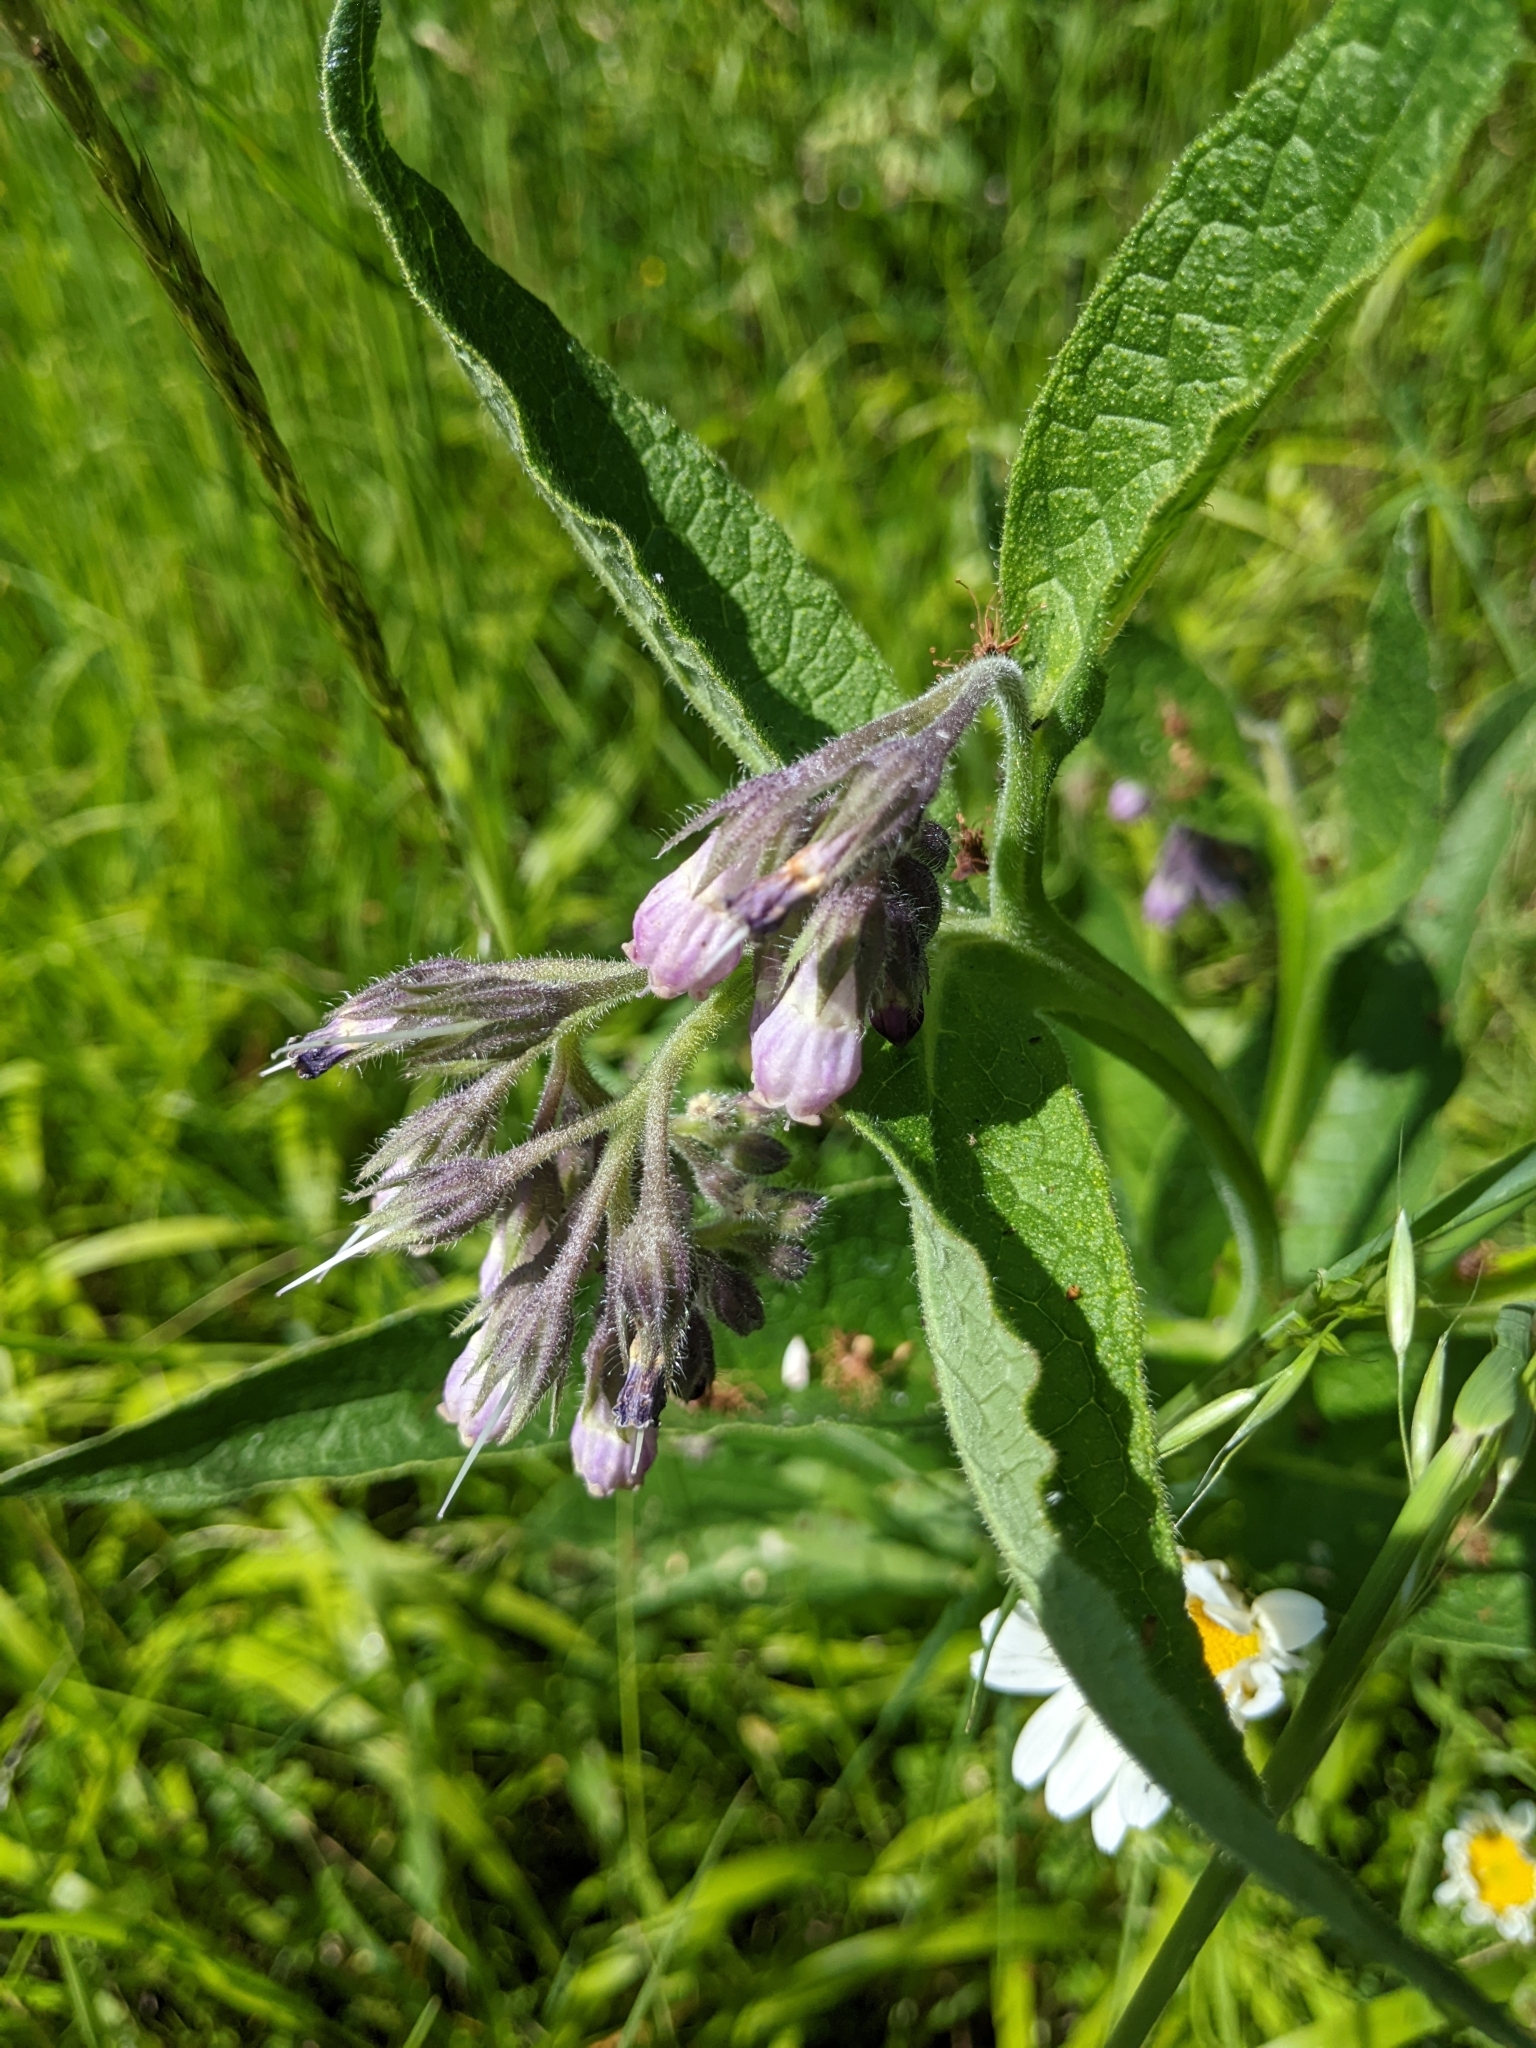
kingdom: Plantae
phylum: Tracheophyta
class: Magnoliopsida
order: Boraginales
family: Boraginaceae
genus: Symphytum
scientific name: Symphytum officinale
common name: Common comfrey
